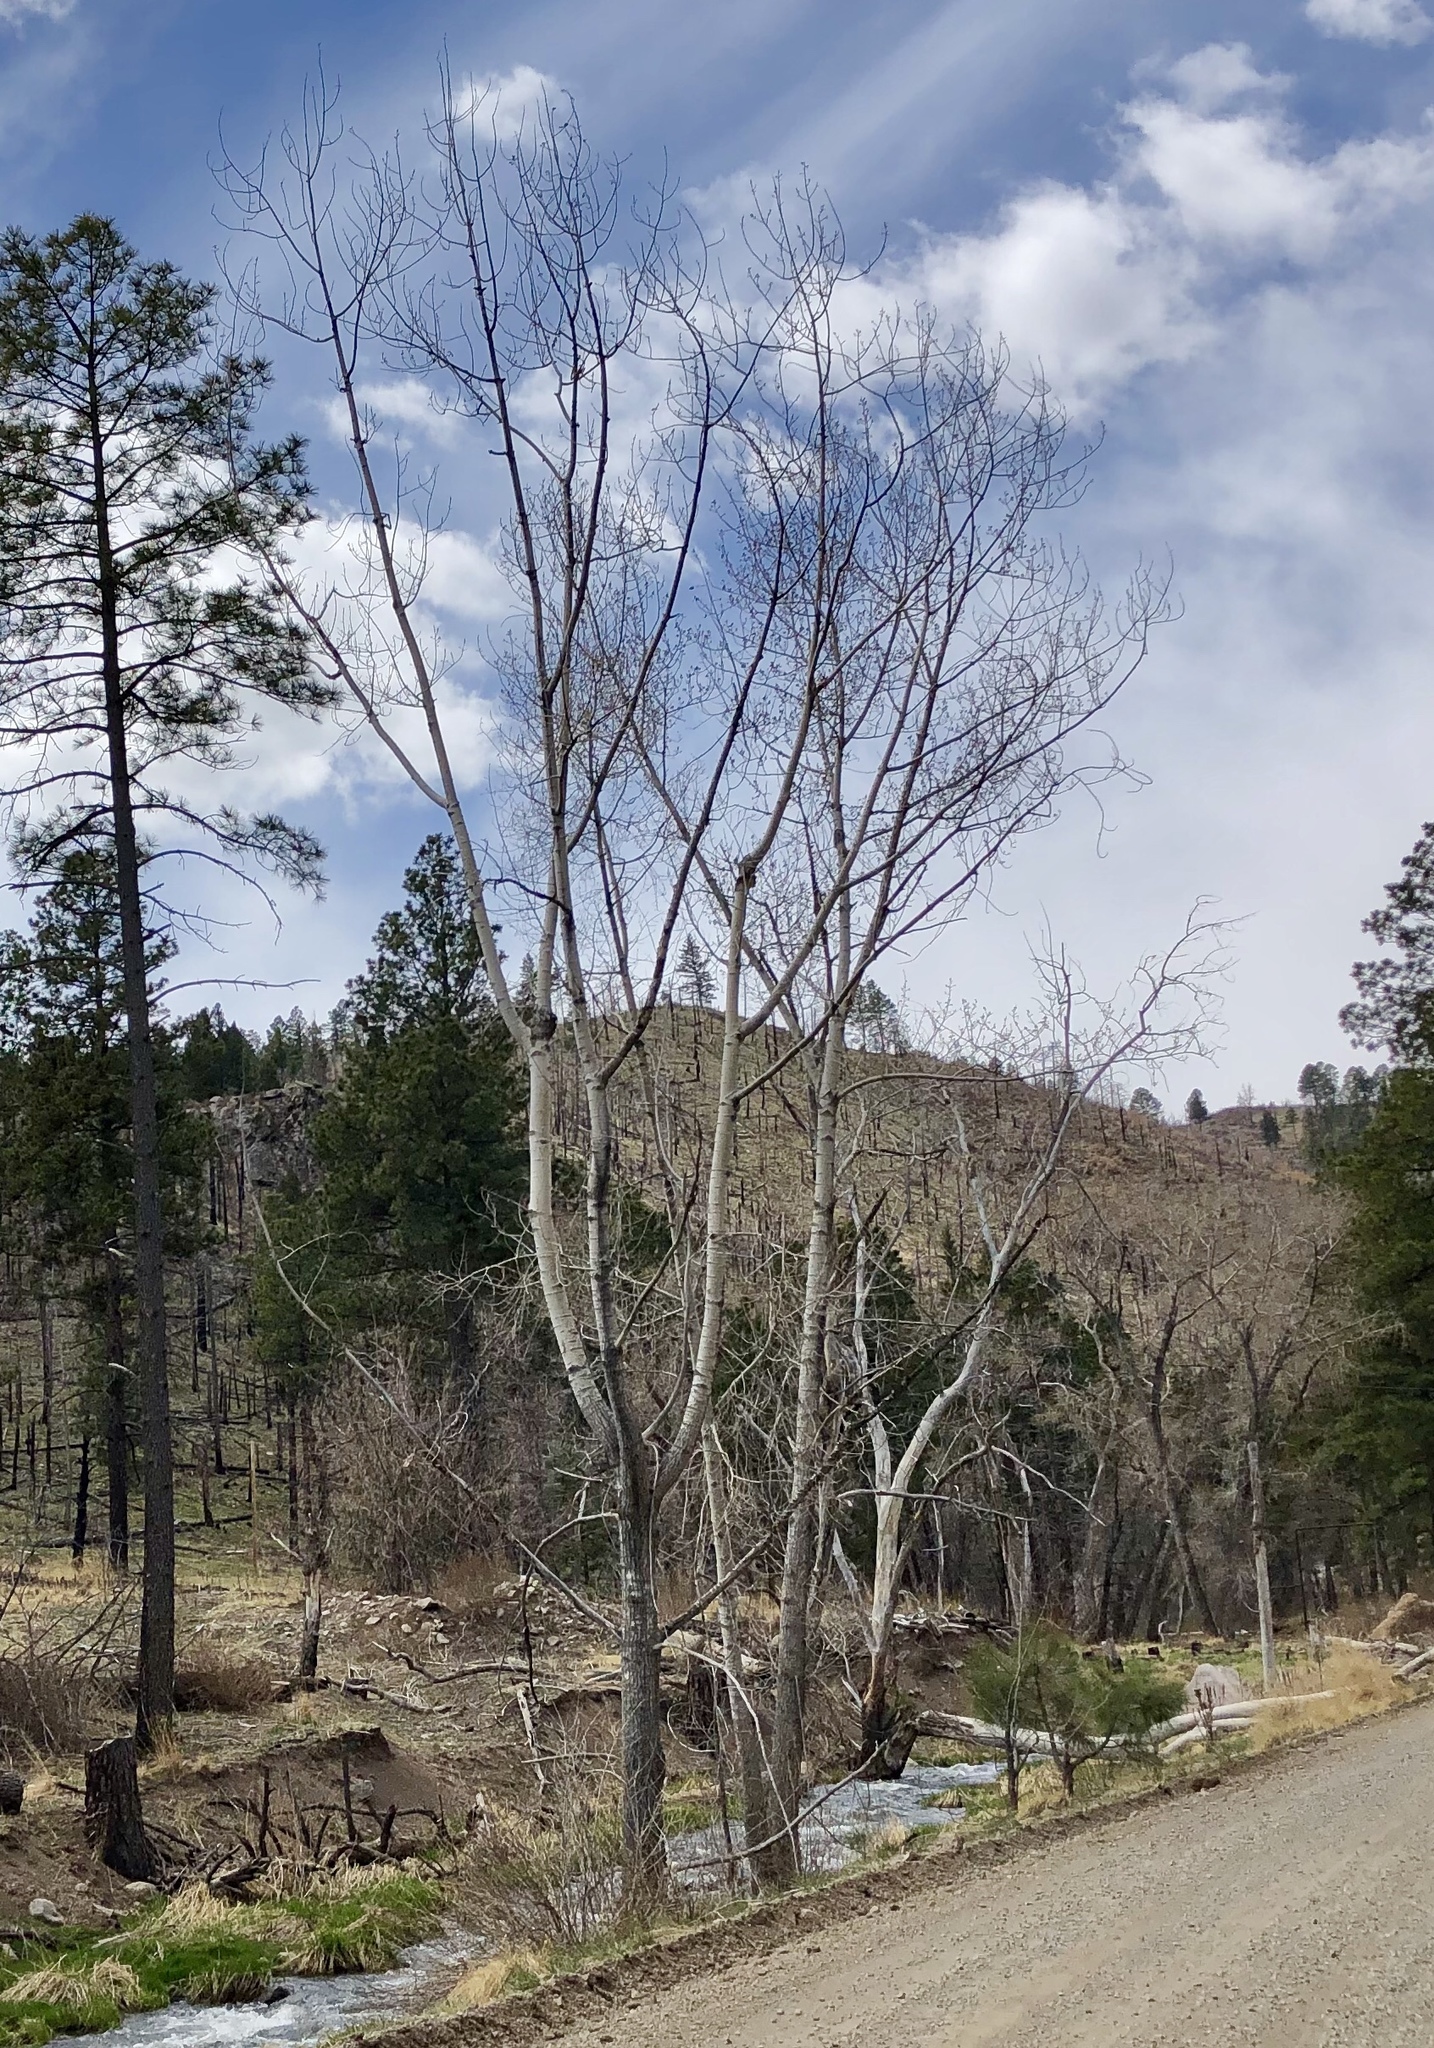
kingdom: Plantae
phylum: Tracheophyta
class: Magnoliopsida
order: Malpighiales
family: Salicaceae
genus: Populus
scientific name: Populus tremuloides
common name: Quaking aspen
